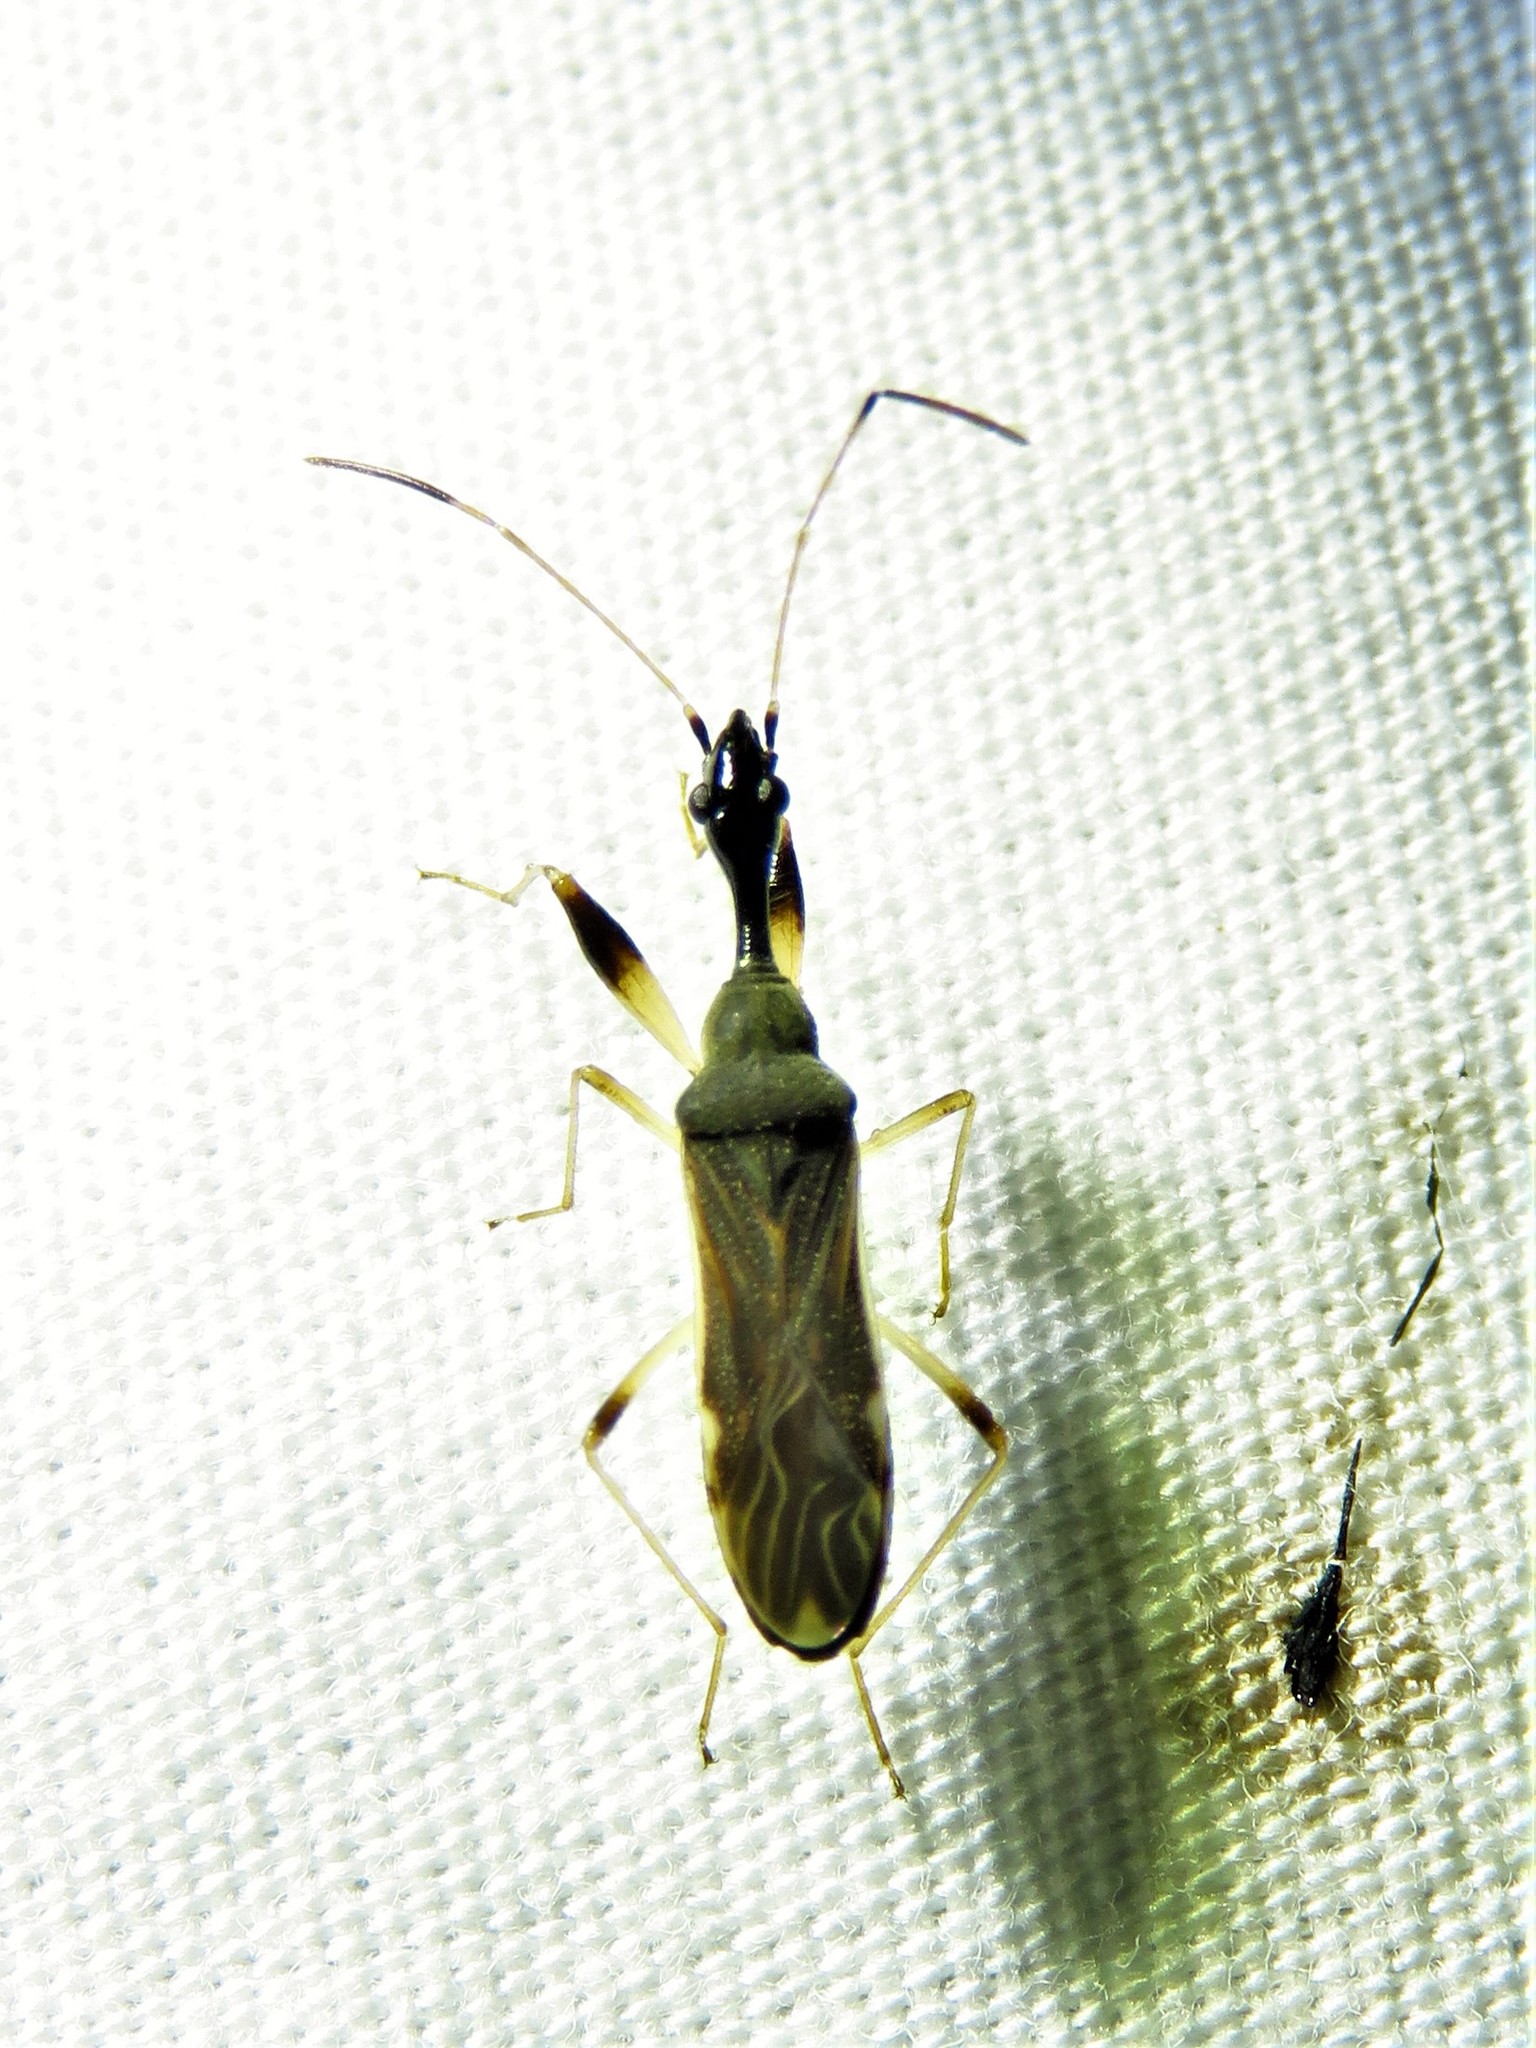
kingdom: Animalia
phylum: Arthropoda
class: Insecta
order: Hemiptera
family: Rhyparochromidae
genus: Myodocha
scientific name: Myodocha serripes
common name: Long-necked seed bug
